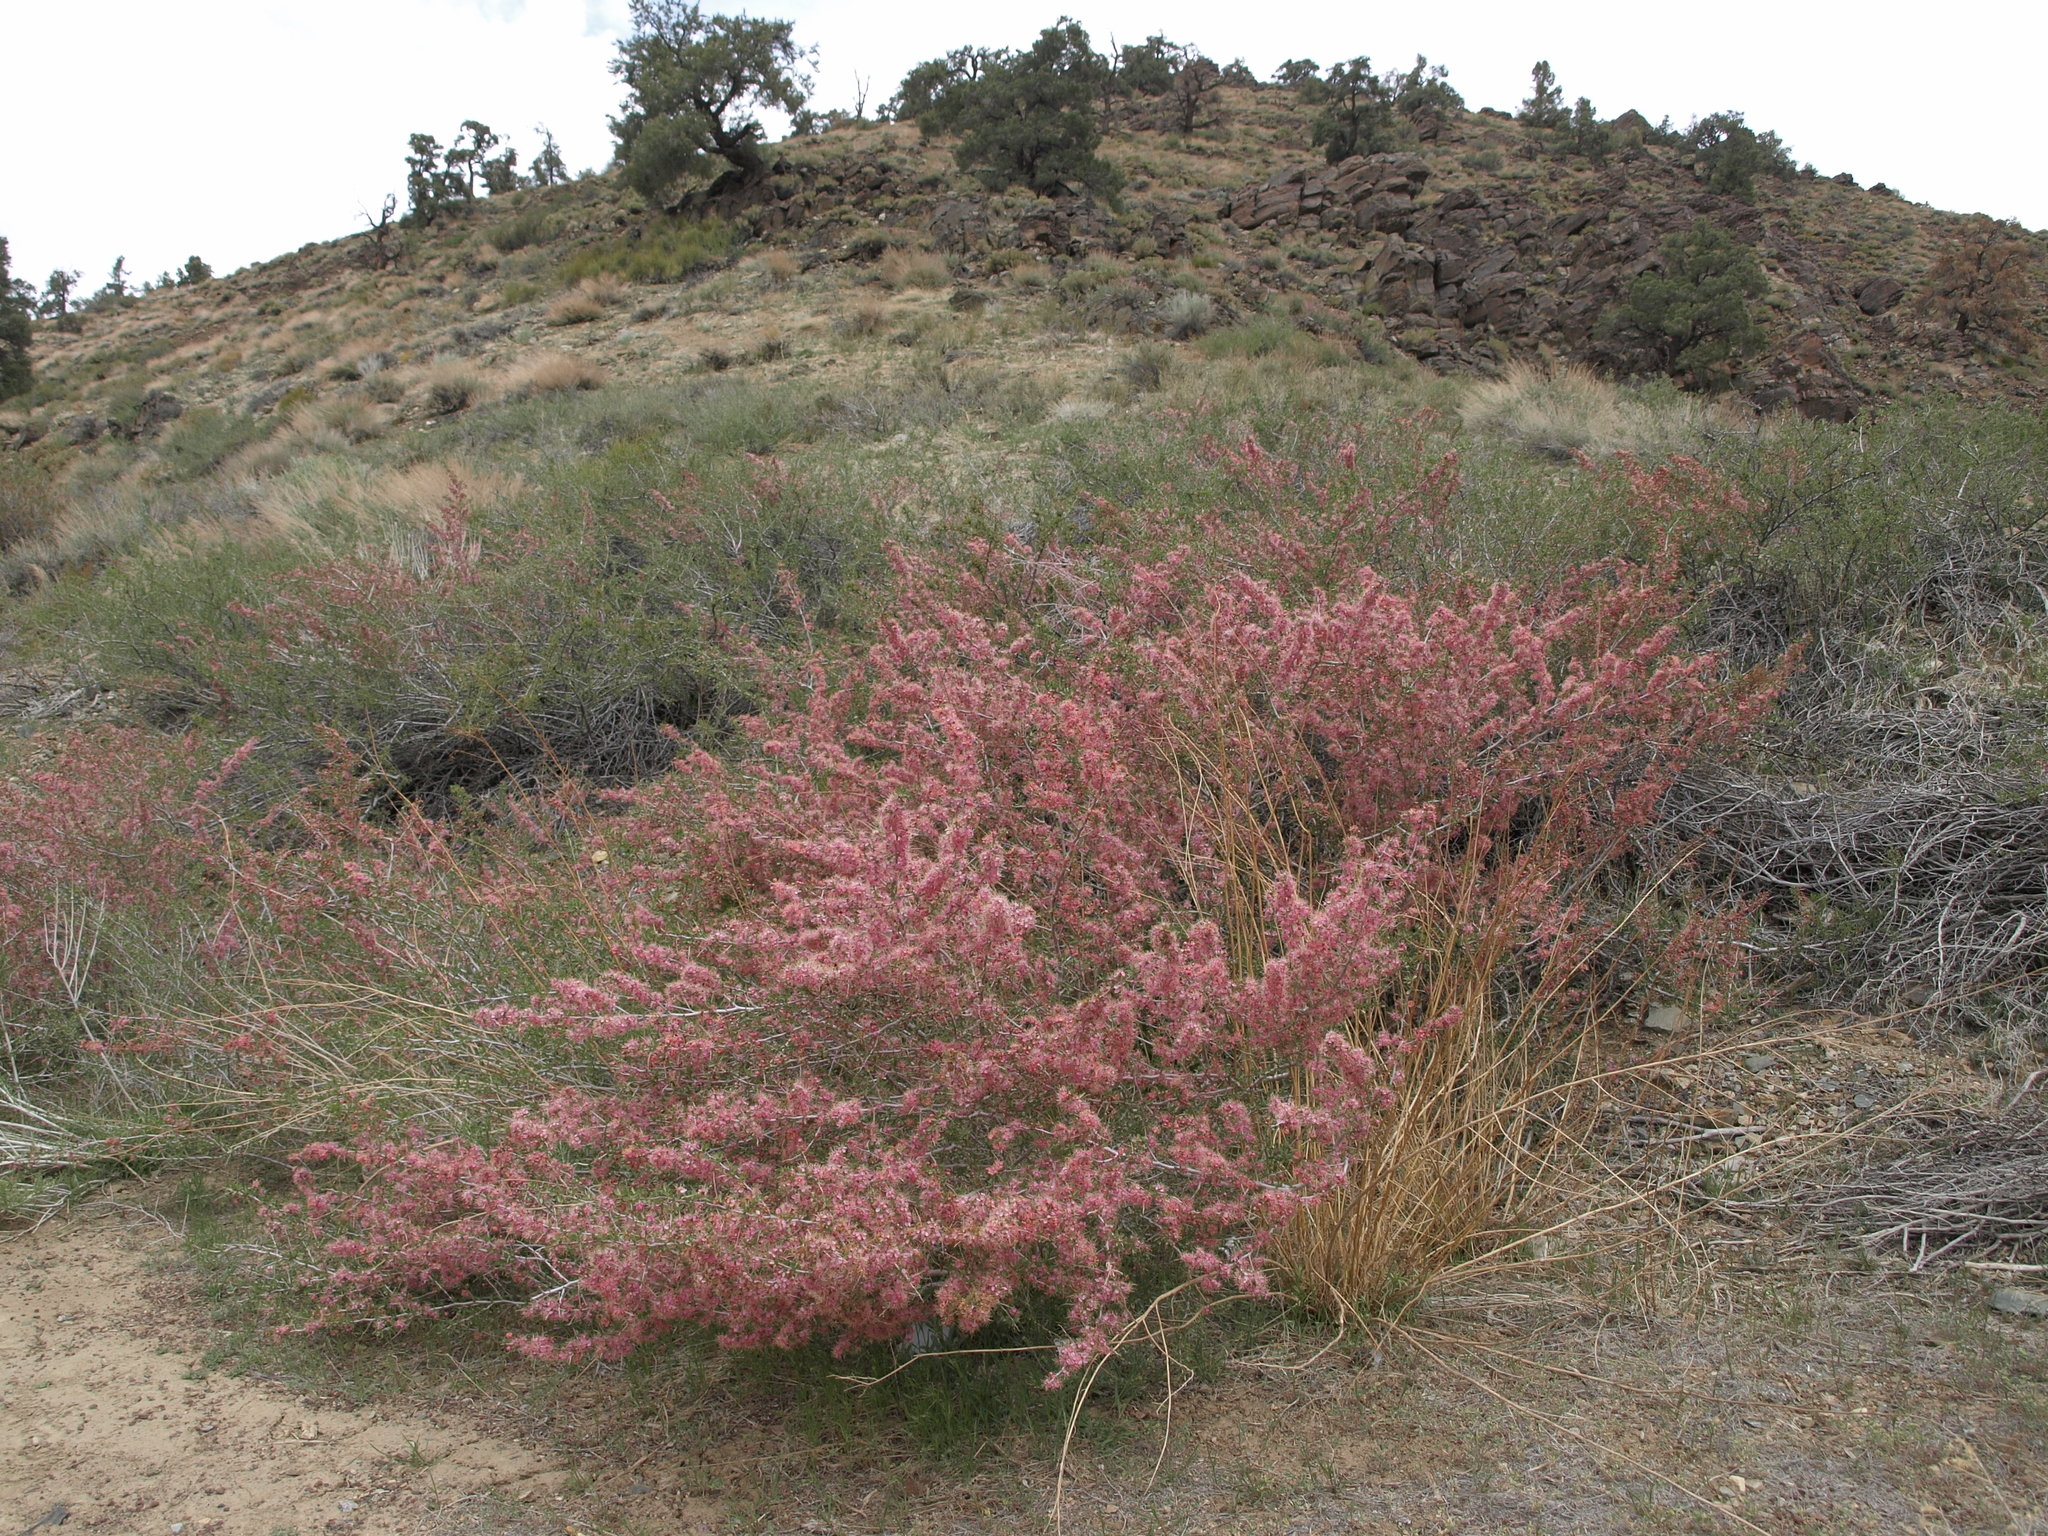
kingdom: Plantae
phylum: Tracheophyta
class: Magnoliopsida
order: Rosales
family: Rosaceae
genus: Prunus
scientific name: Prunus andersonii
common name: Desert peach
